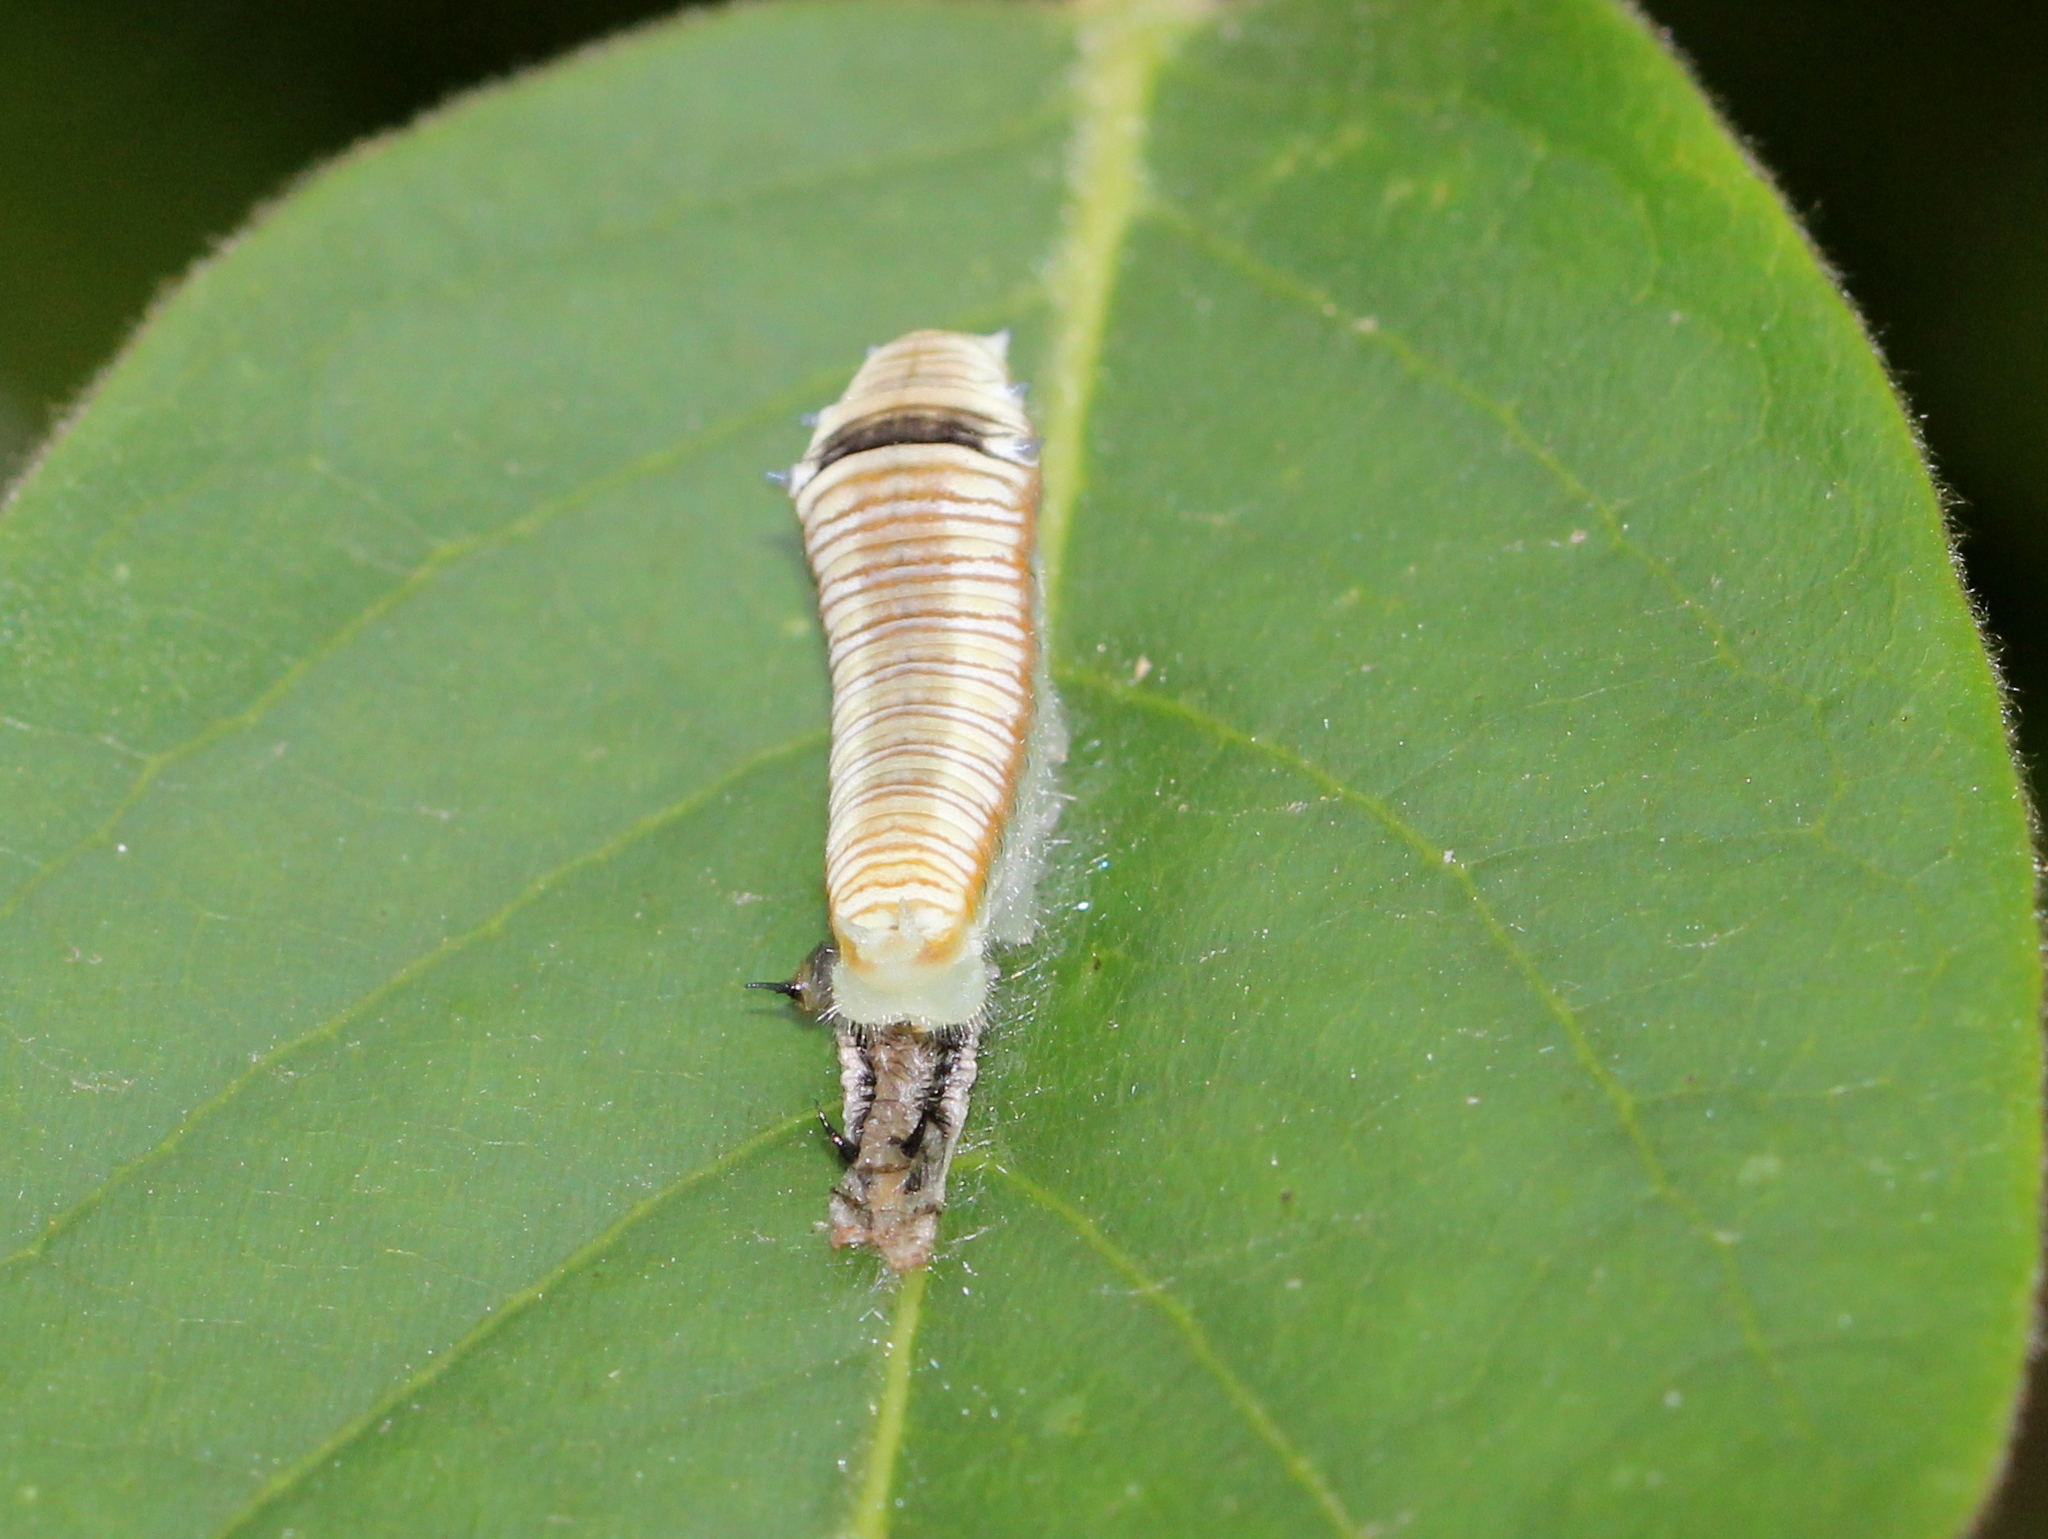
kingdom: Animalia
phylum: Arthropoda
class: Insecta
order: Lepidoptera
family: Papilionidae
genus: Graphium
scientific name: Graphium nomius
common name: Spot swordtail
